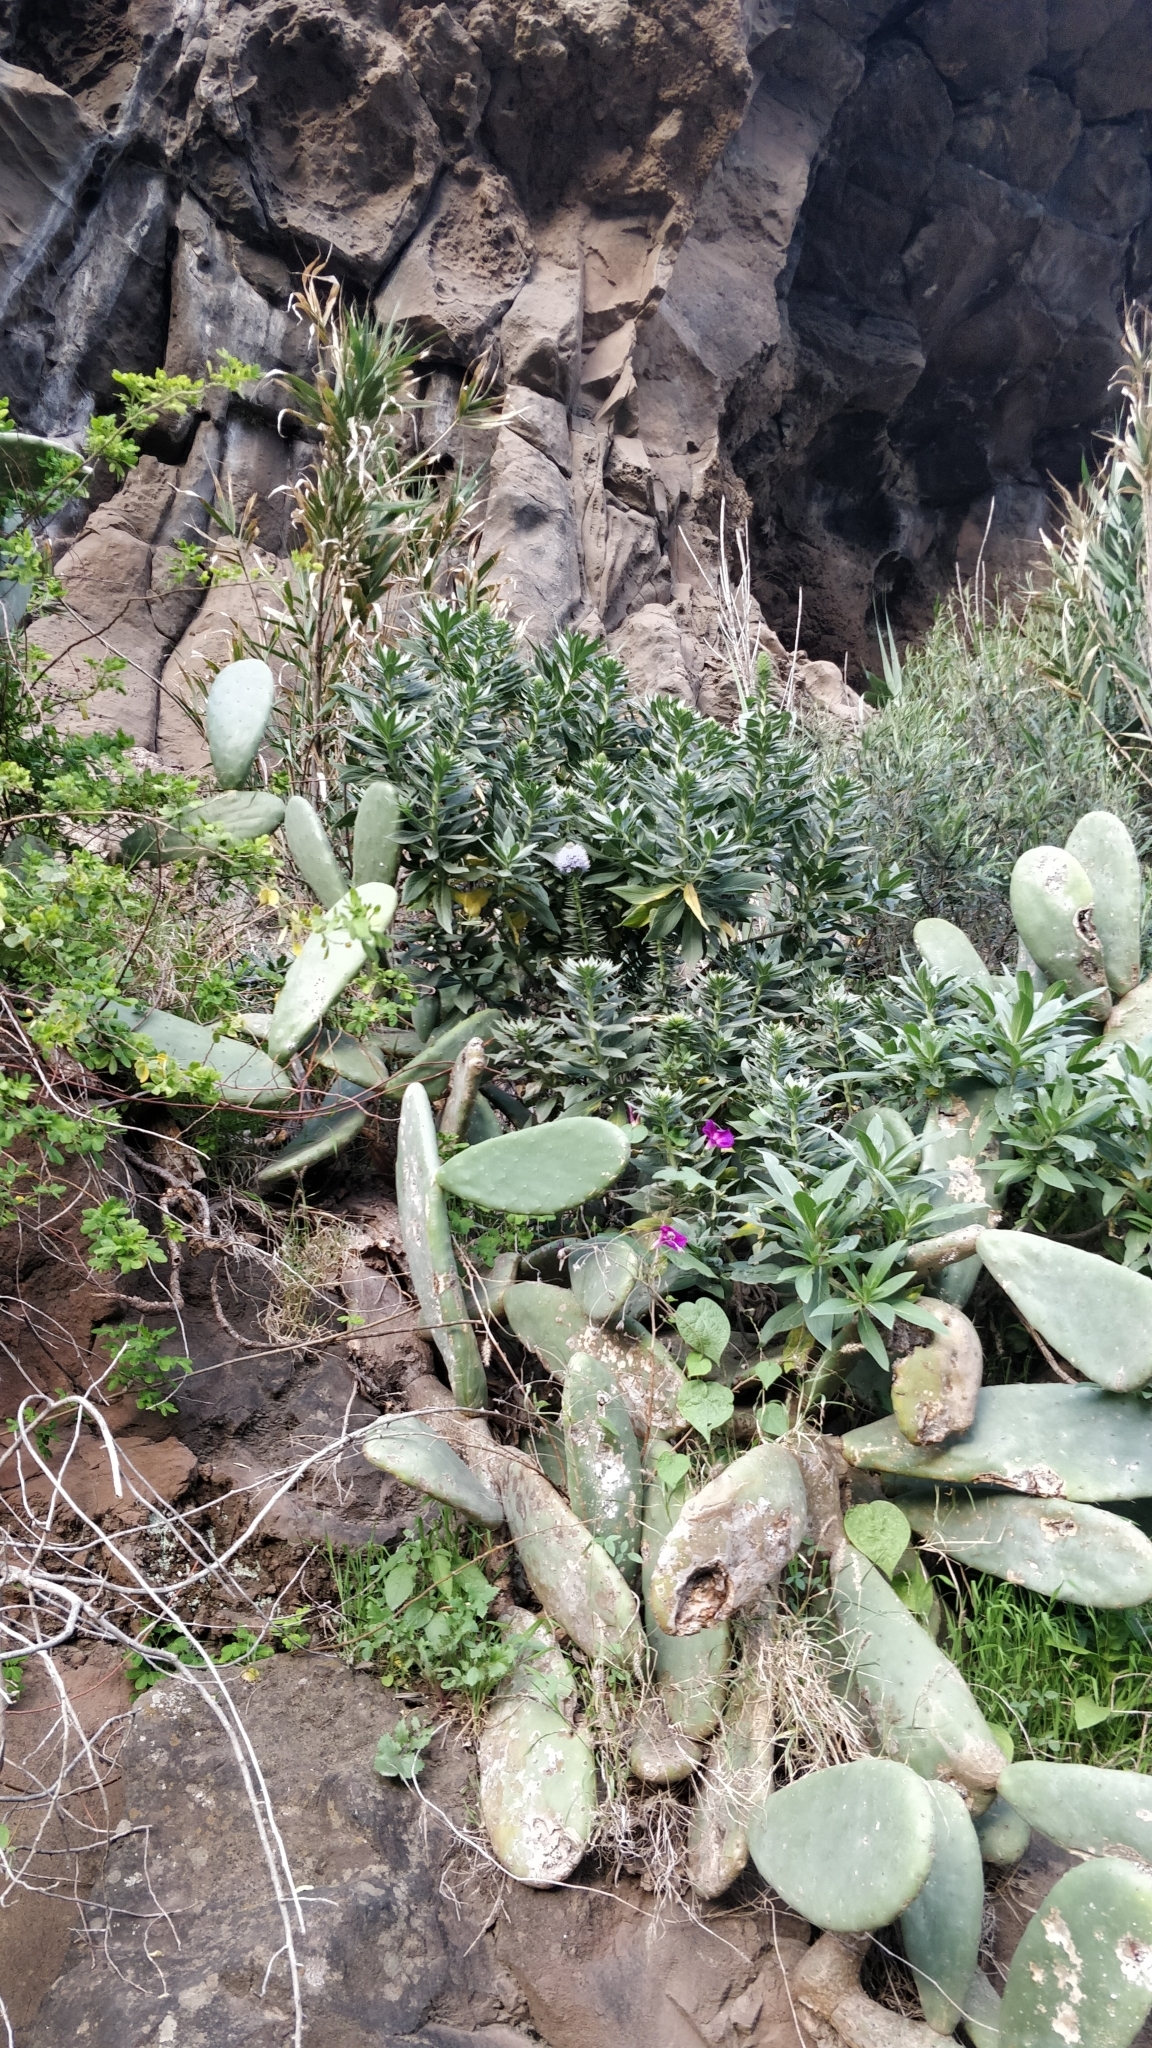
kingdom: Plantae
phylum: Tracheophyta
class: Magnoliopsida
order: Boraginales
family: Boraginaceae
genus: Echium
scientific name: Echium nervosum
